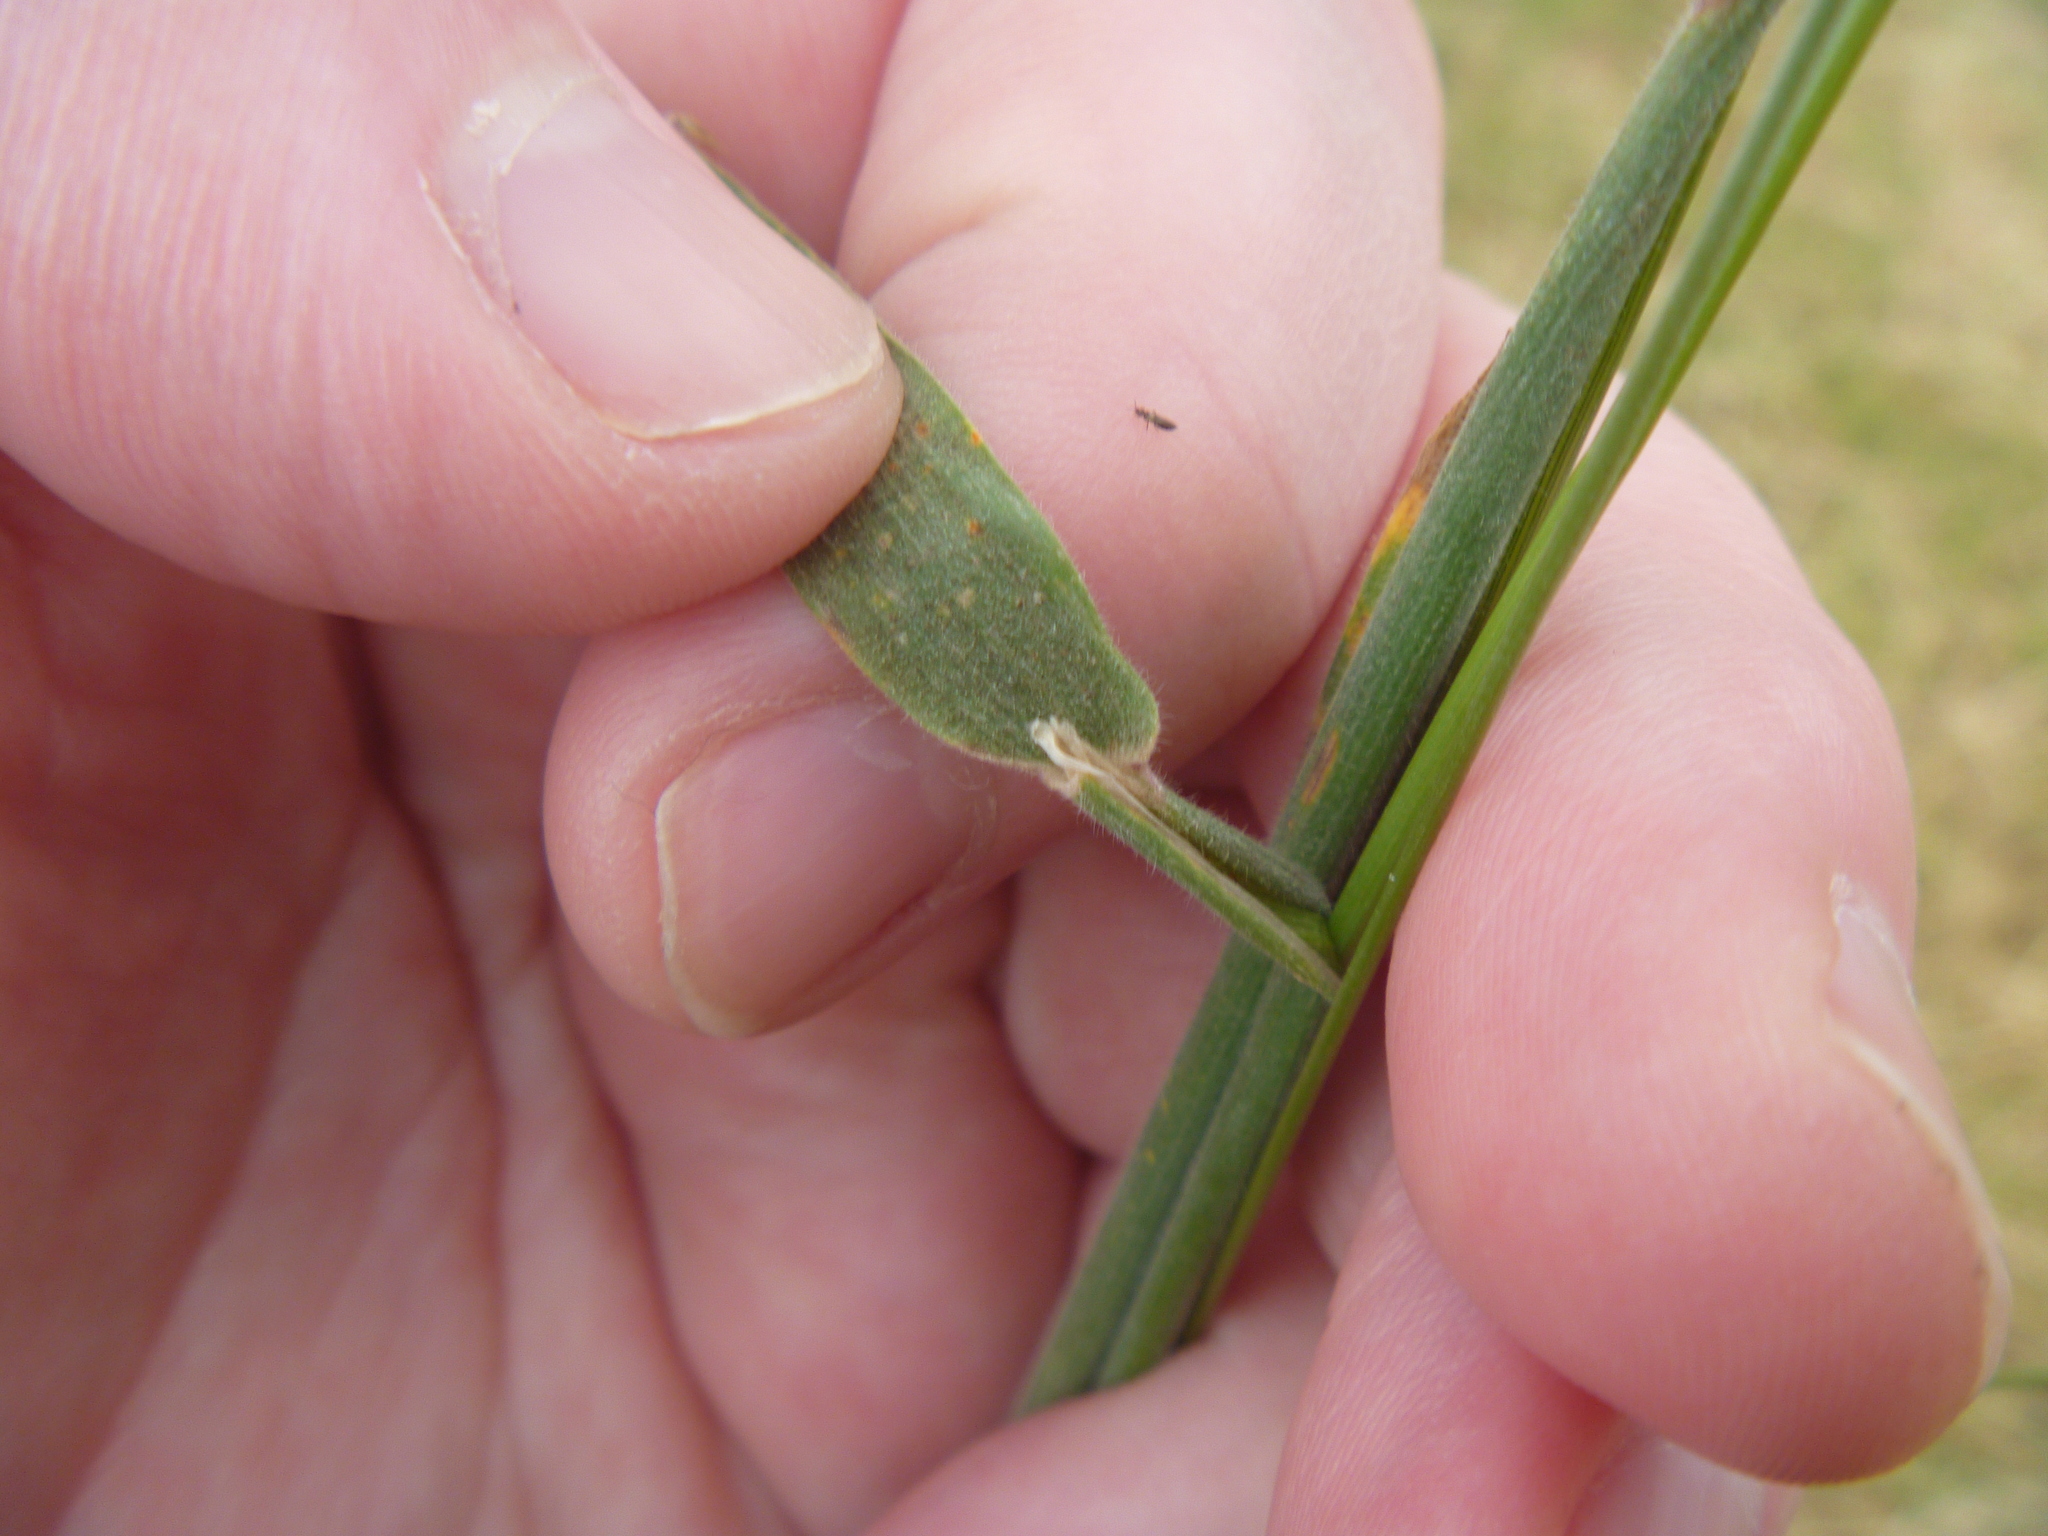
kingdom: Plantae
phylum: Tracheophyta
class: Liliopsida
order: Poales
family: Poaceae
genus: Holcus
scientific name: Holcus lanatus
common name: Yorkshire-fog
